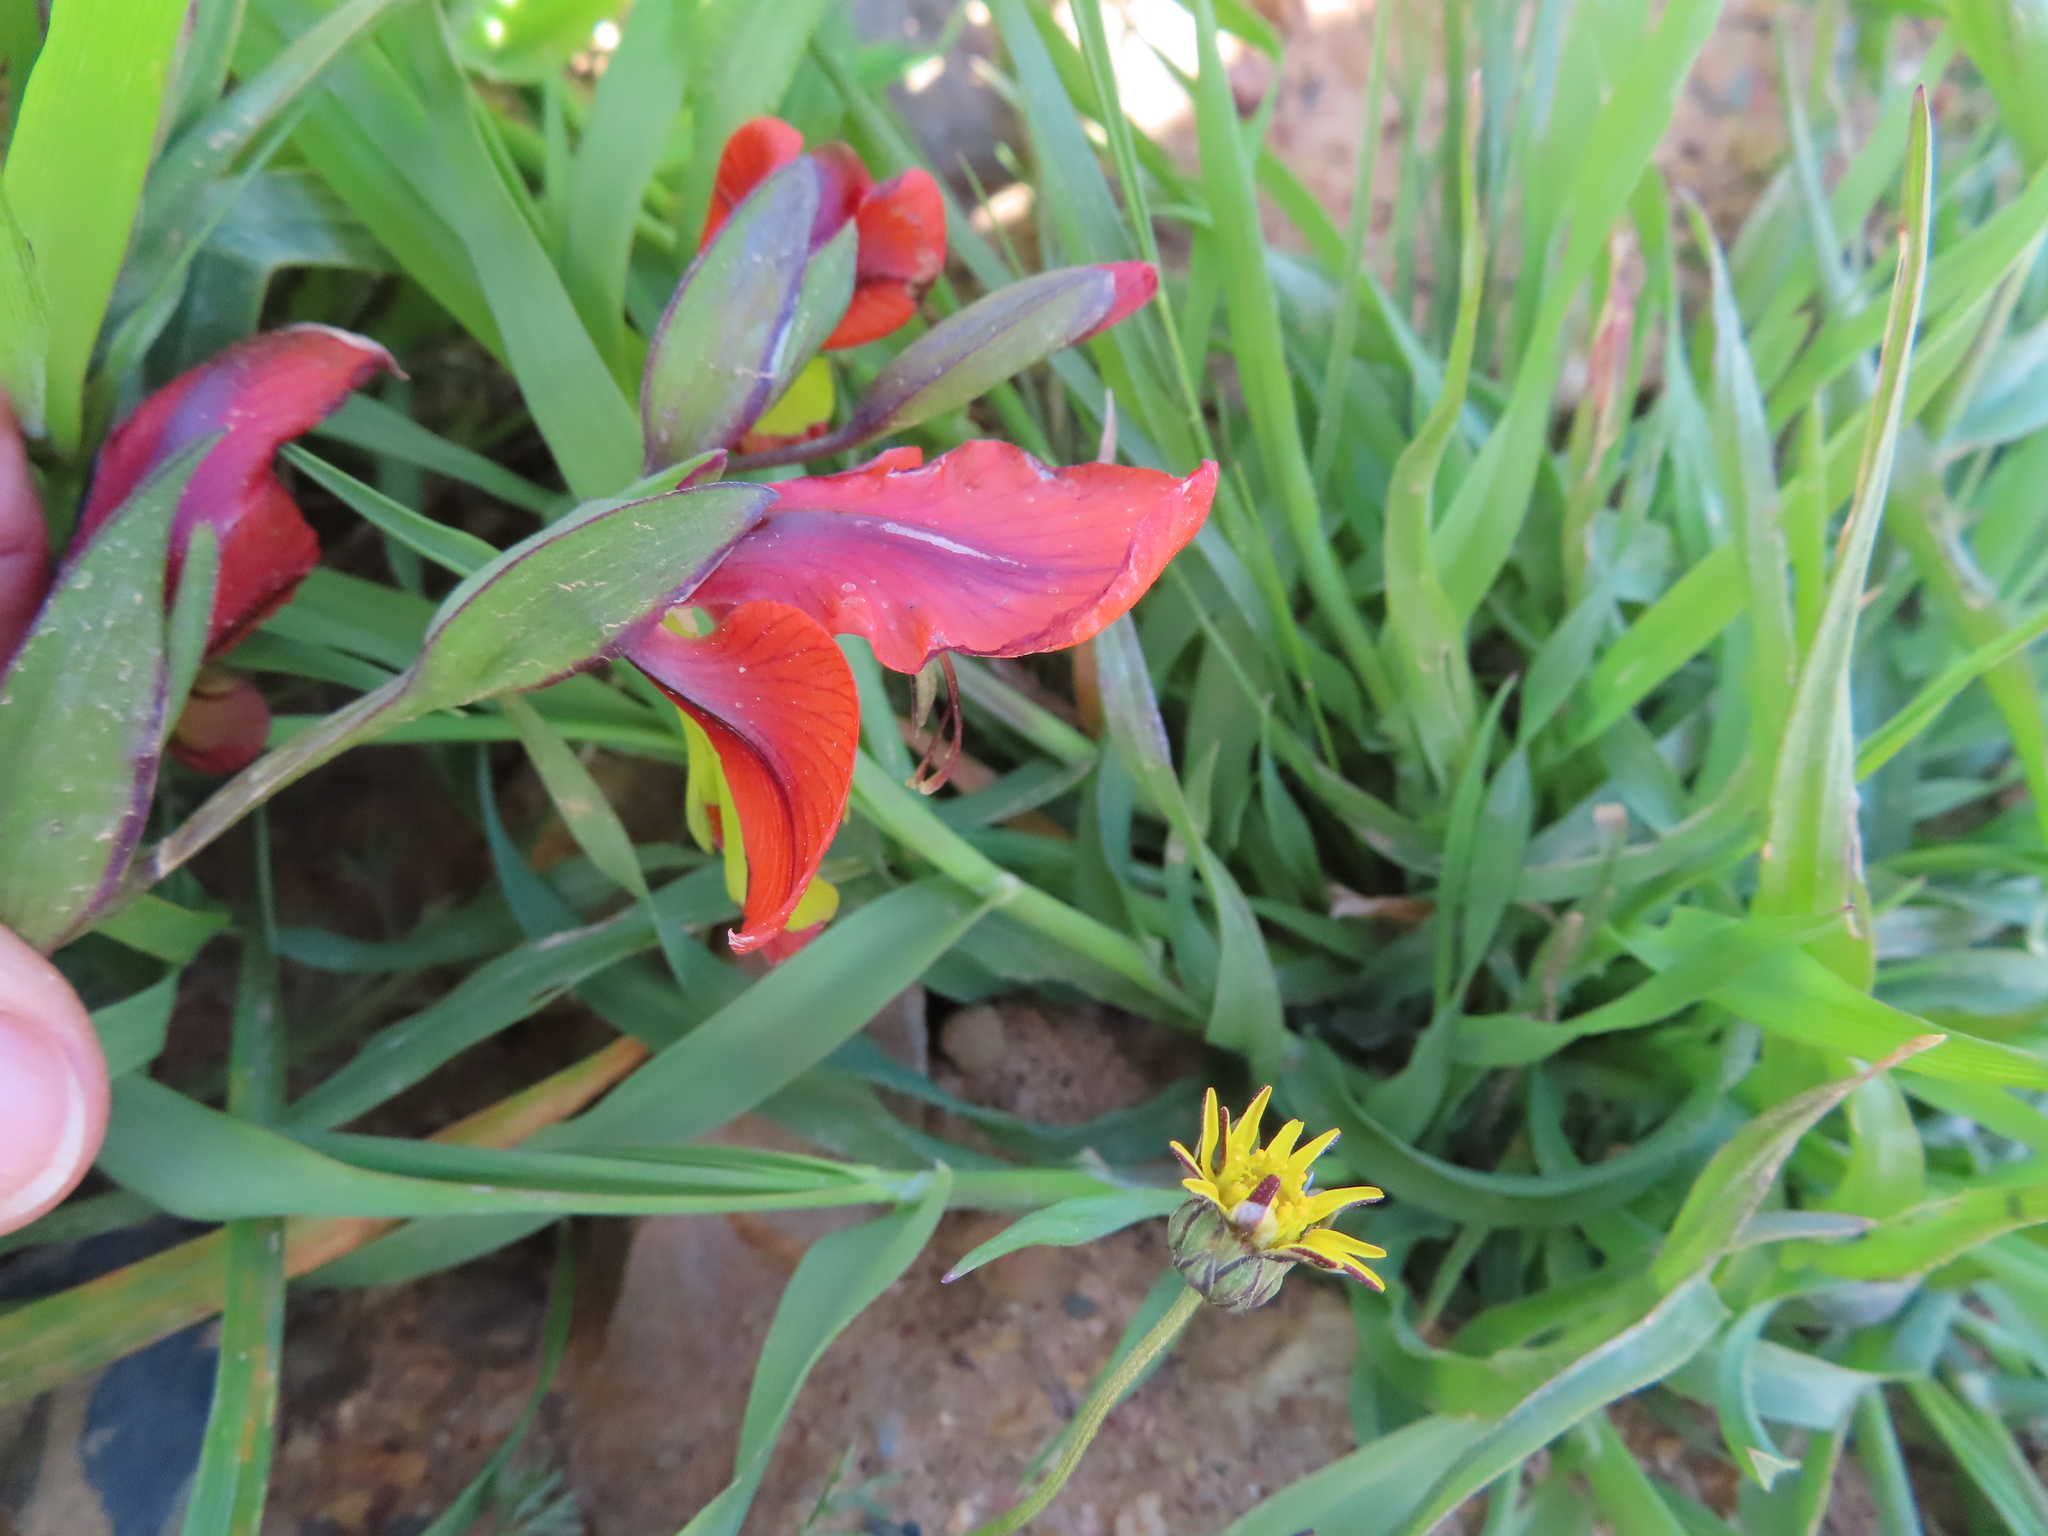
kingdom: Plantae
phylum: Tracheophyta
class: Liliopsida
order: Asparagales
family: Iridaceae
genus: Gladiolus
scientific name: Gladiolus alatus
